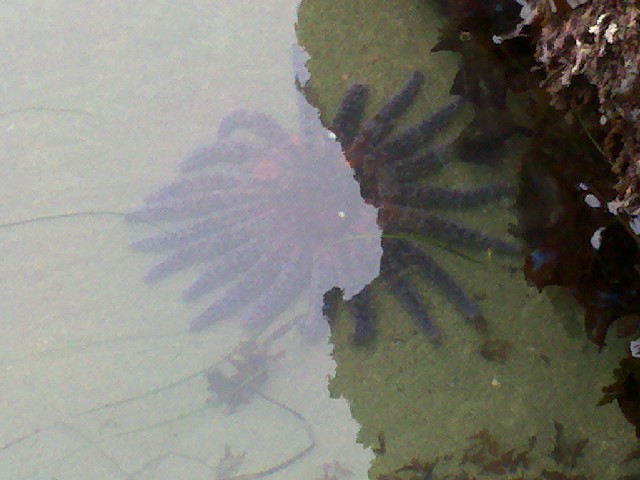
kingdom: Animalia
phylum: Echinodermata
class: Asteroidea
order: Forcipulatida
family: Asteriidae
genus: Pycnopodia
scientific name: Pycnopodia helianthoides
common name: Rag mop
